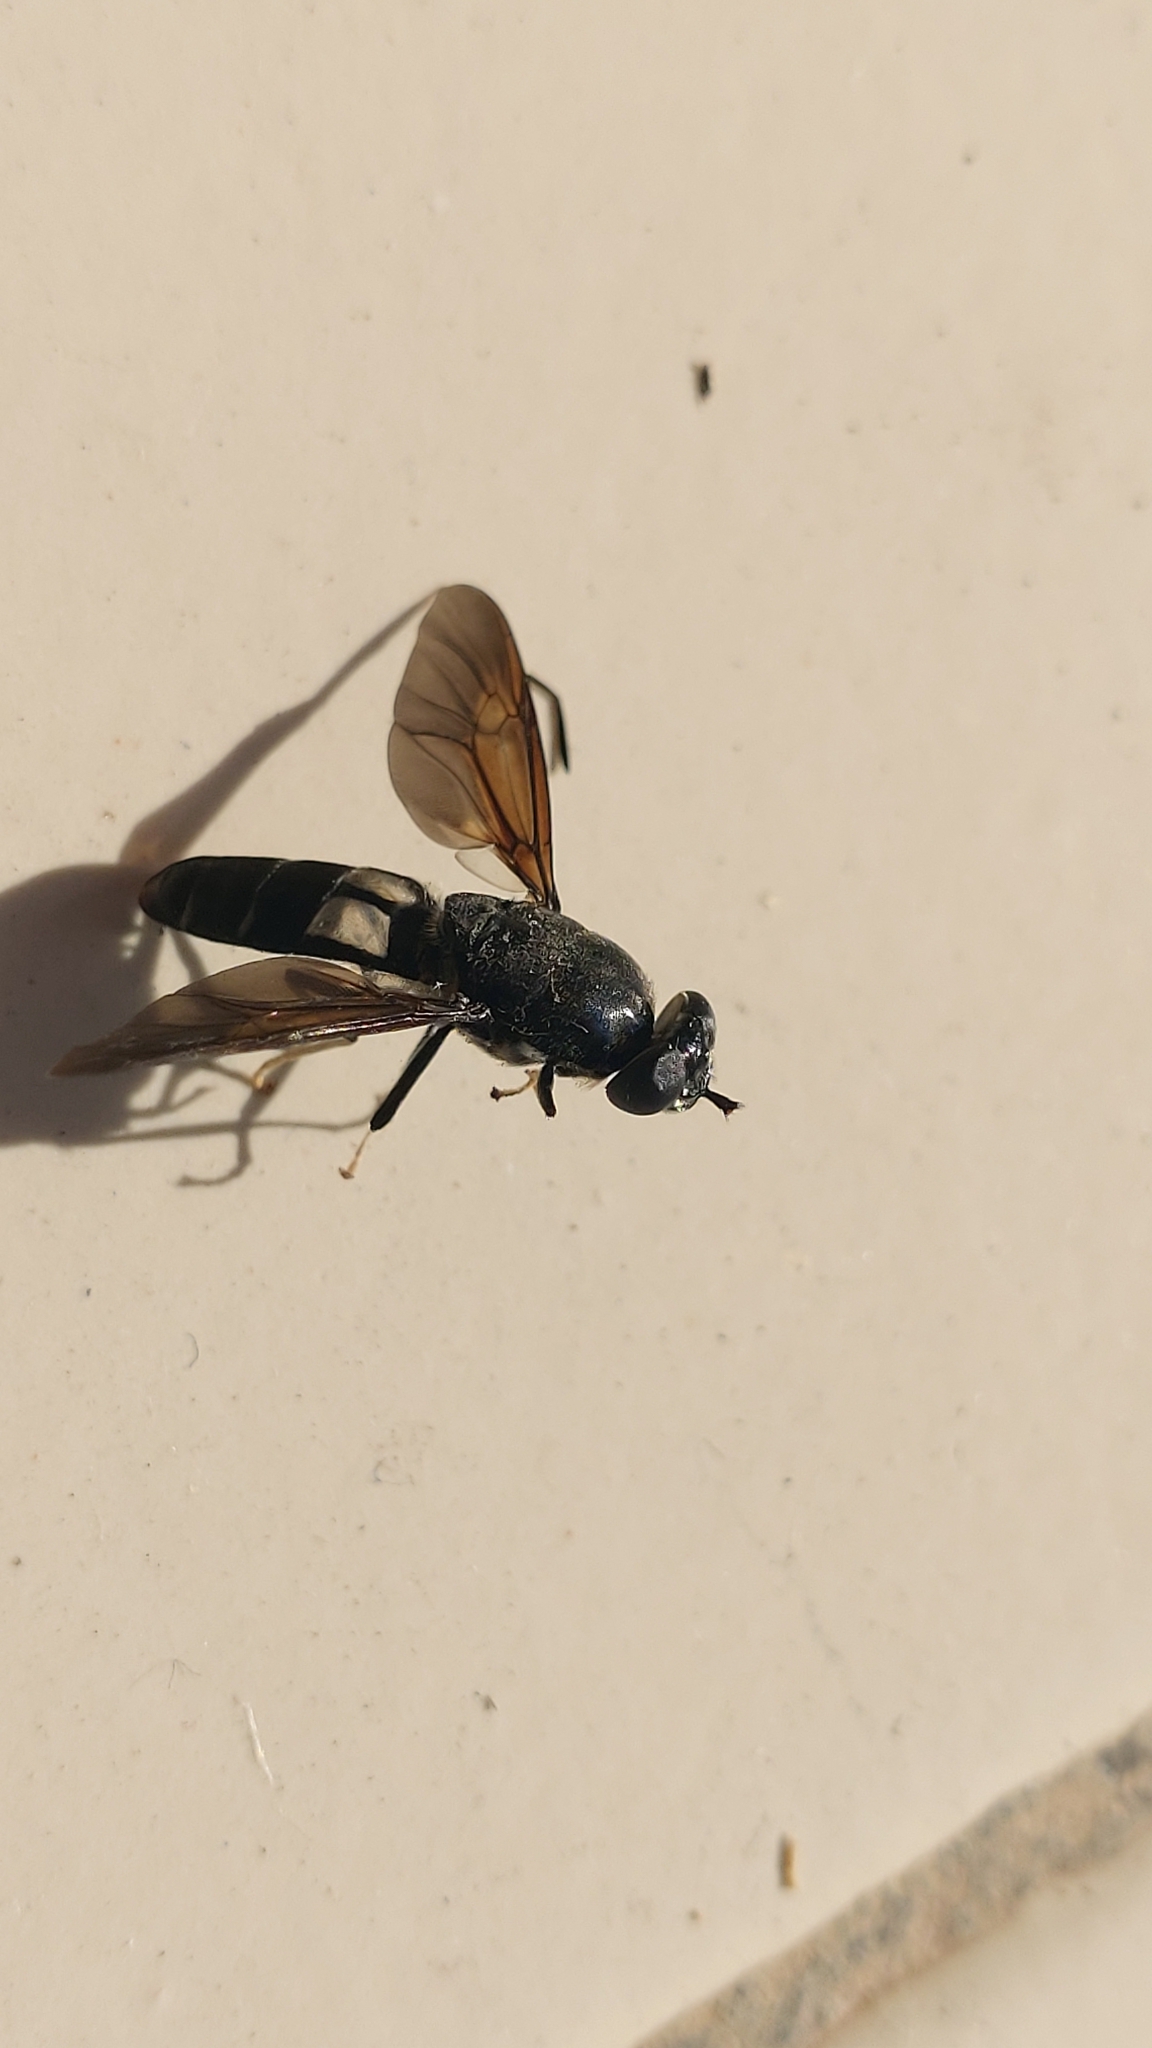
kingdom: Animalia
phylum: Arthropoda
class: Insecta
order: Diptera
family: Stratiomyidae
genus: Hermetia
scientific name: Hermetia illucens
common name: Black soldier fly
